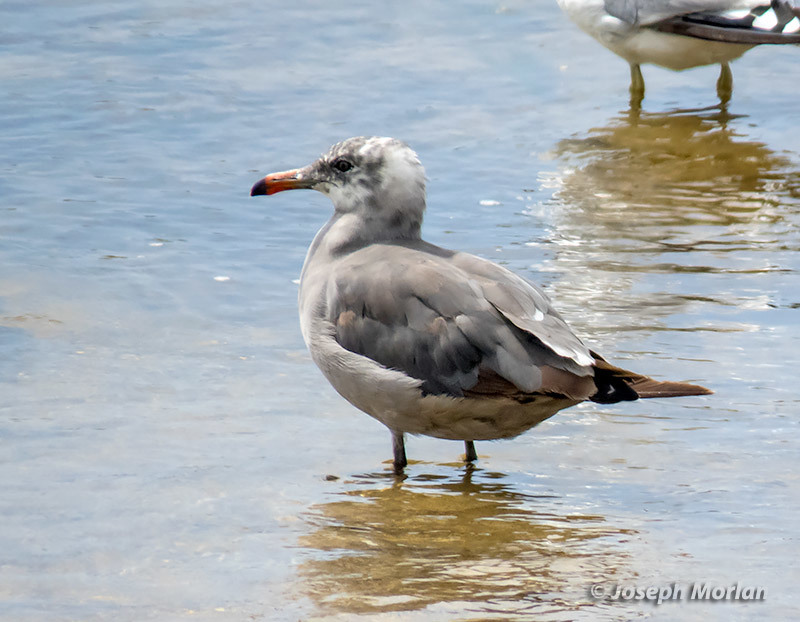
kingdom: Animalia
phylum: Chordata
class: Aves
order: Charadriiformes
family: Laridae
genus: Larus
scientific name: Larus heermanni
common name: Heermann's gull
